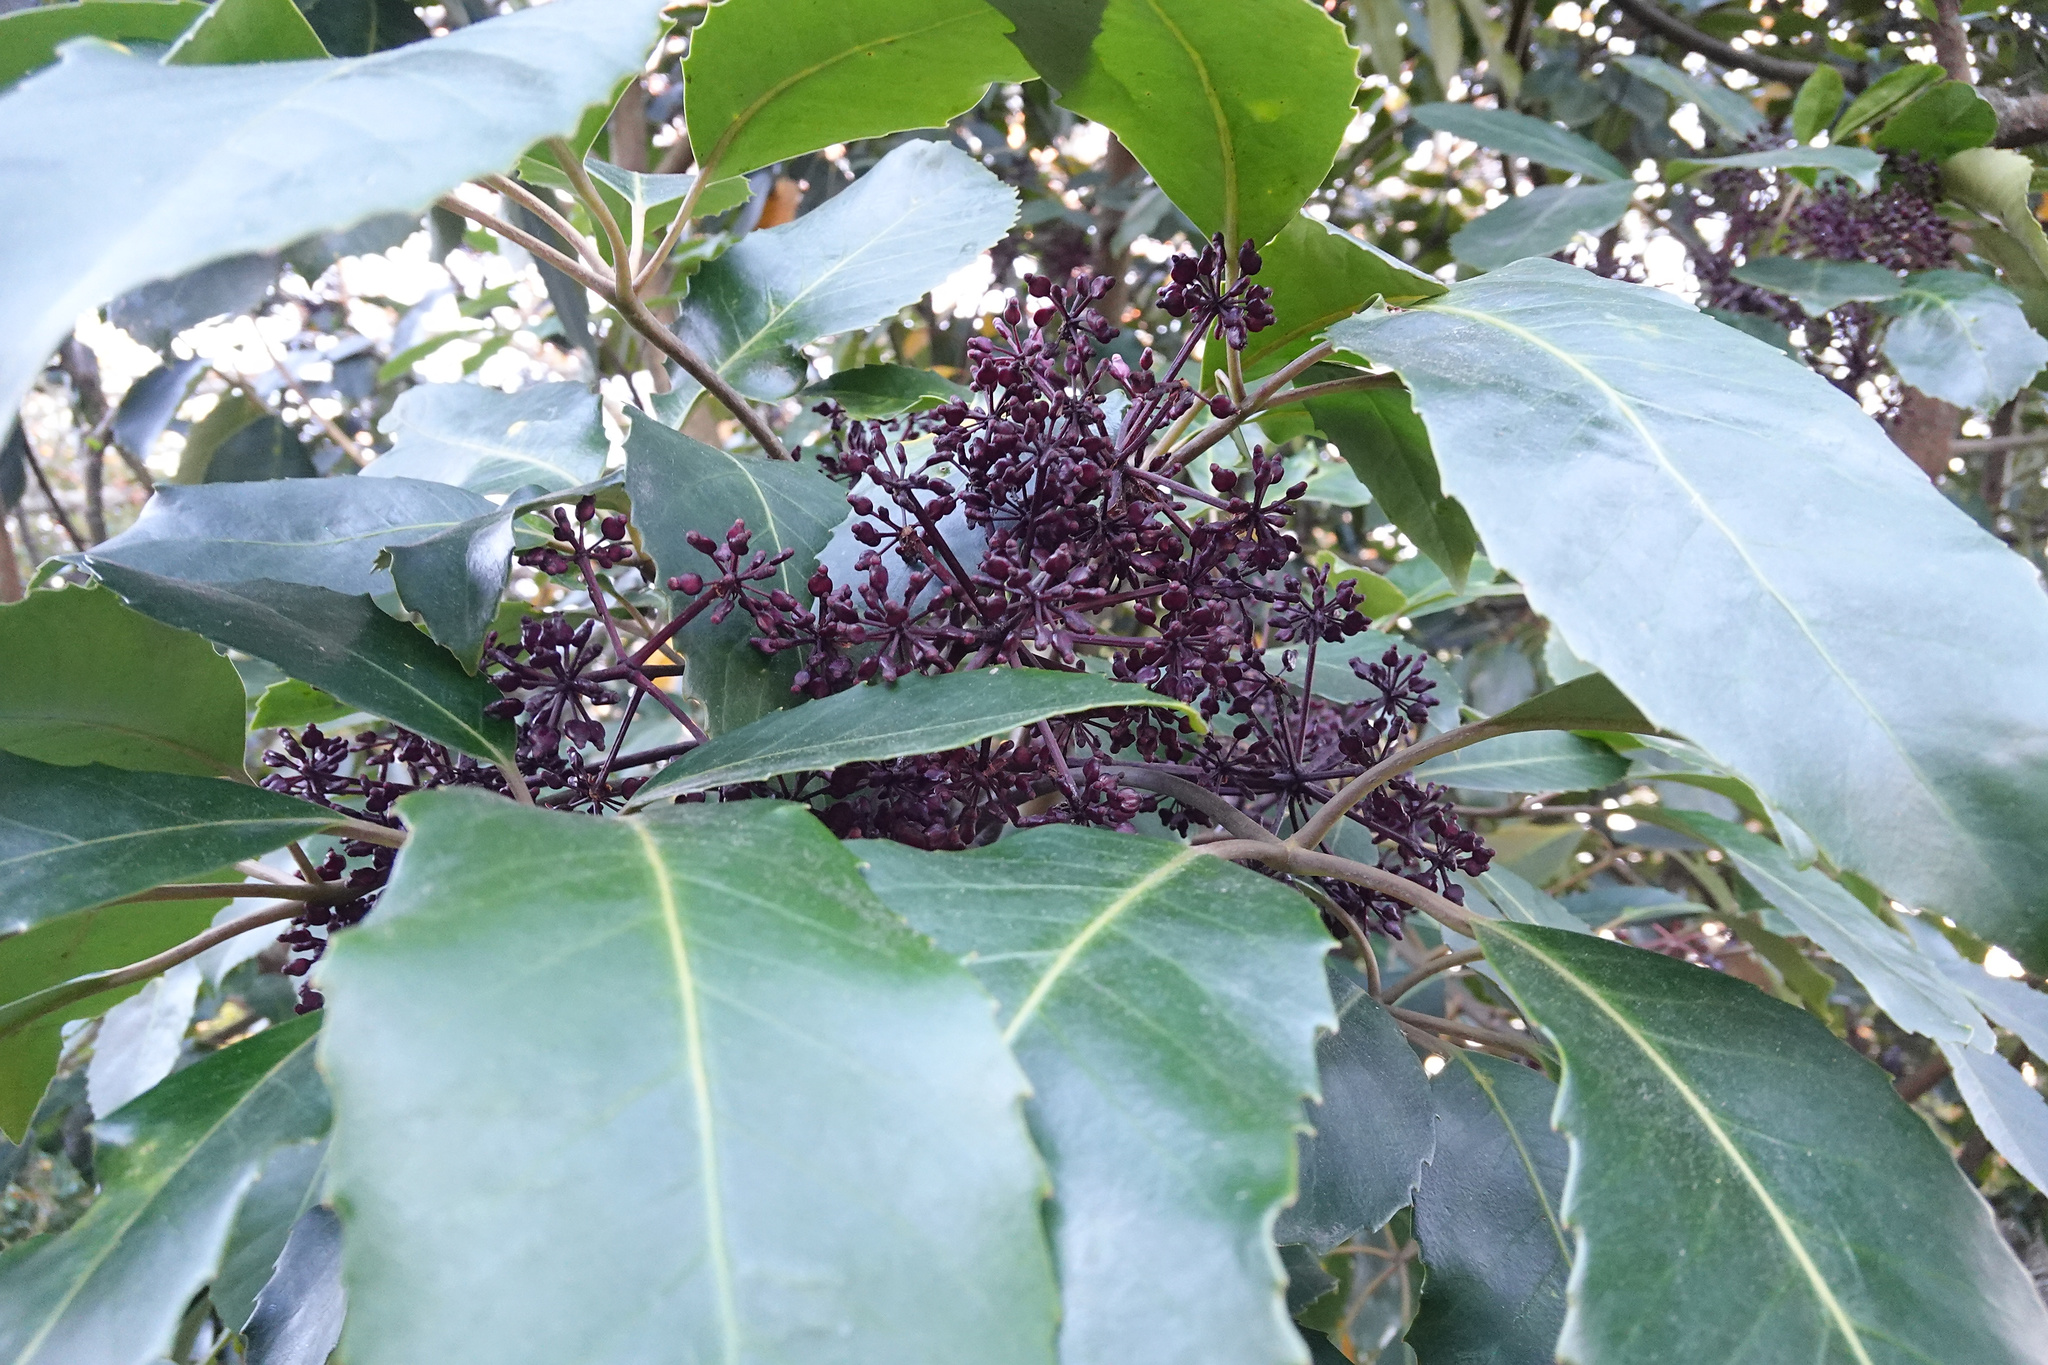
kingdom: Plantae
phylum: Tracheophyta
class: Magnoliopsida
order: Apiales
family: Araliaceae
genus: Neopanax
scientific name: Neopanax arboreus
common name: Five-fingers
